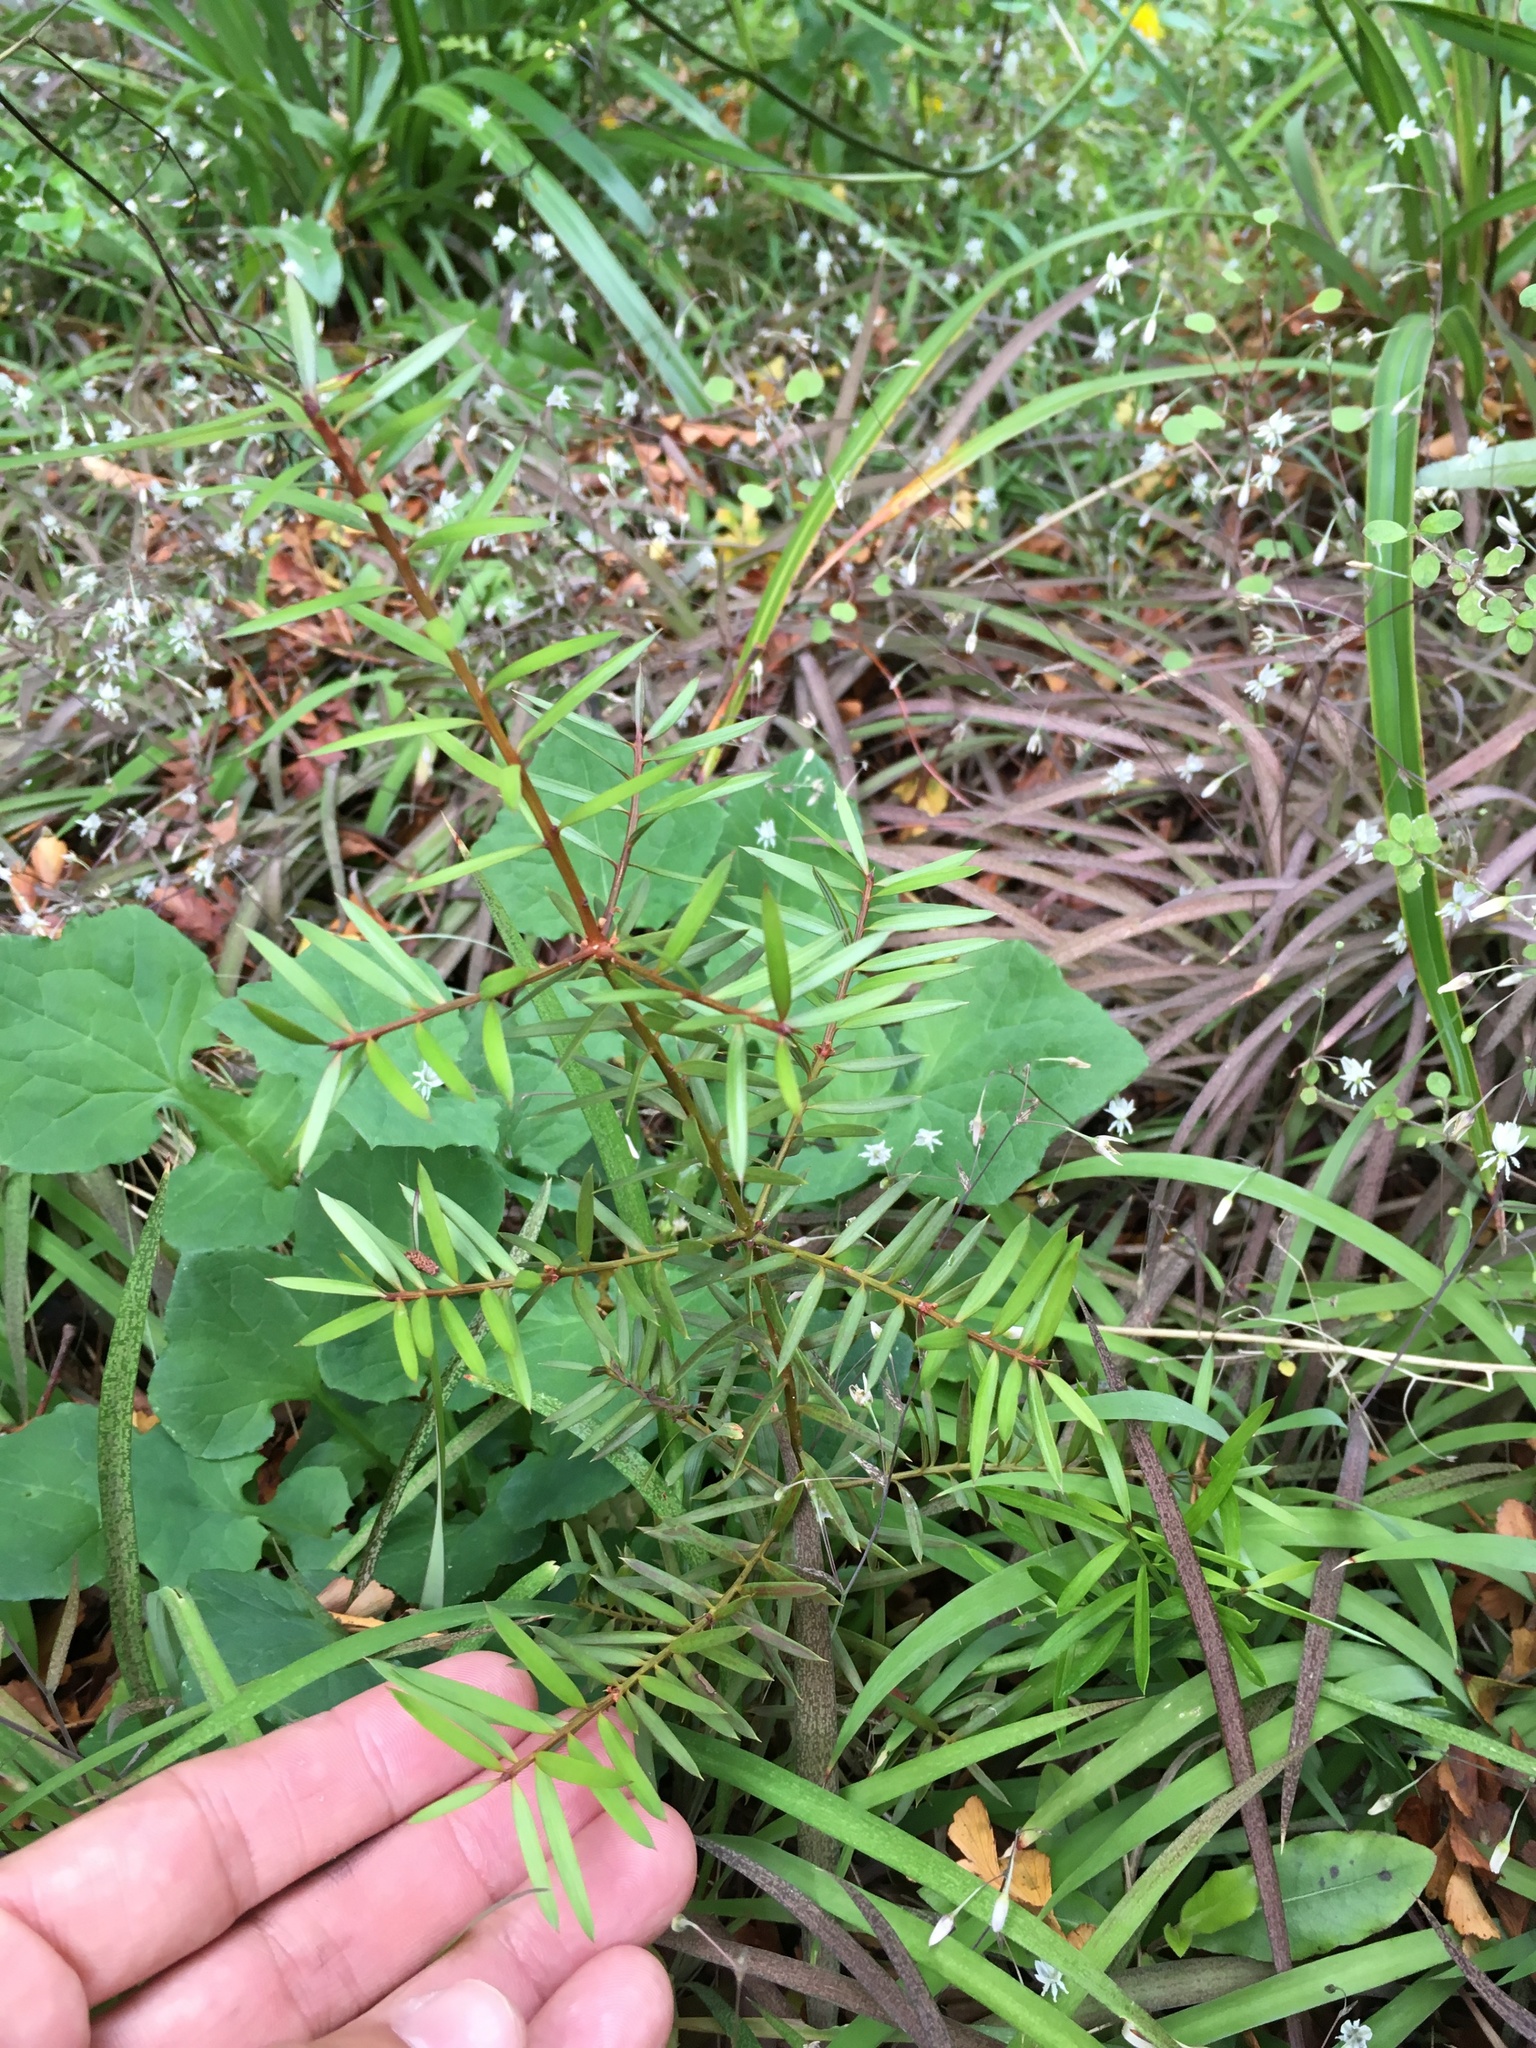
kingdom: Plantae
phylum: Tracheophyta
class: Pinopsida
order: Pinales
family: Podocarpaceae
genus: Podocarpus
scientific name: Podocarpus totara
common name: Totara
